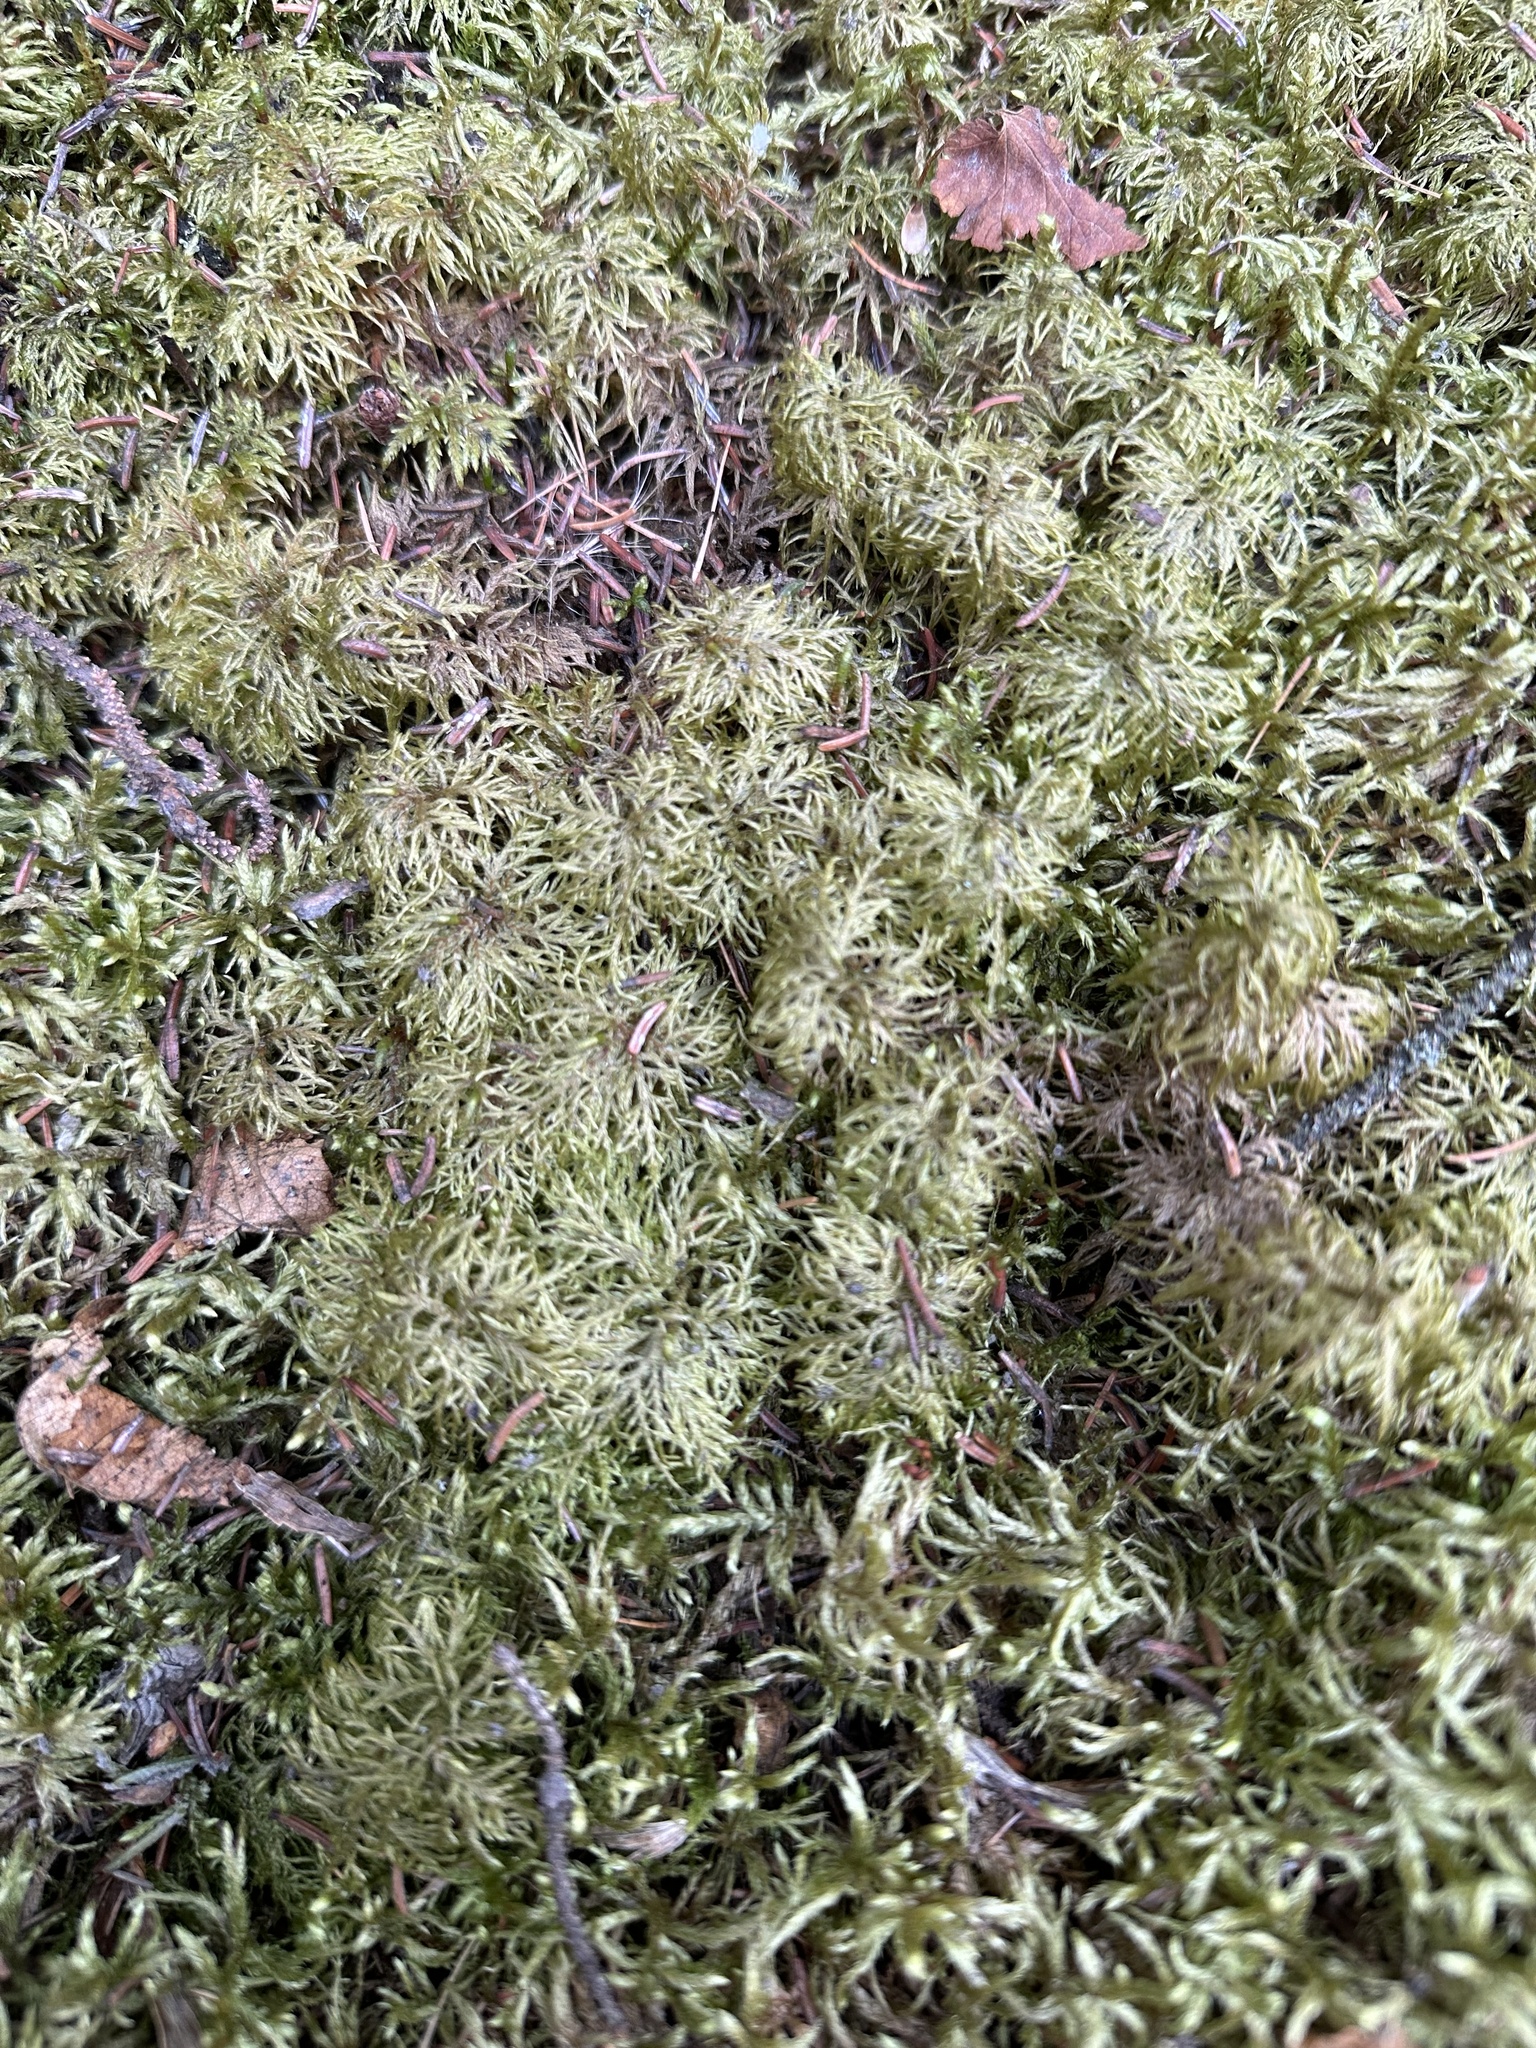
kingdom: Plantae
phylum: Bryophyta
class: Bryopsida
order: Hypnales
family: Hylocomiaceae
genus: Hylocomium
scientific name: Hylocomium splendens
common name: Stairstep moss
